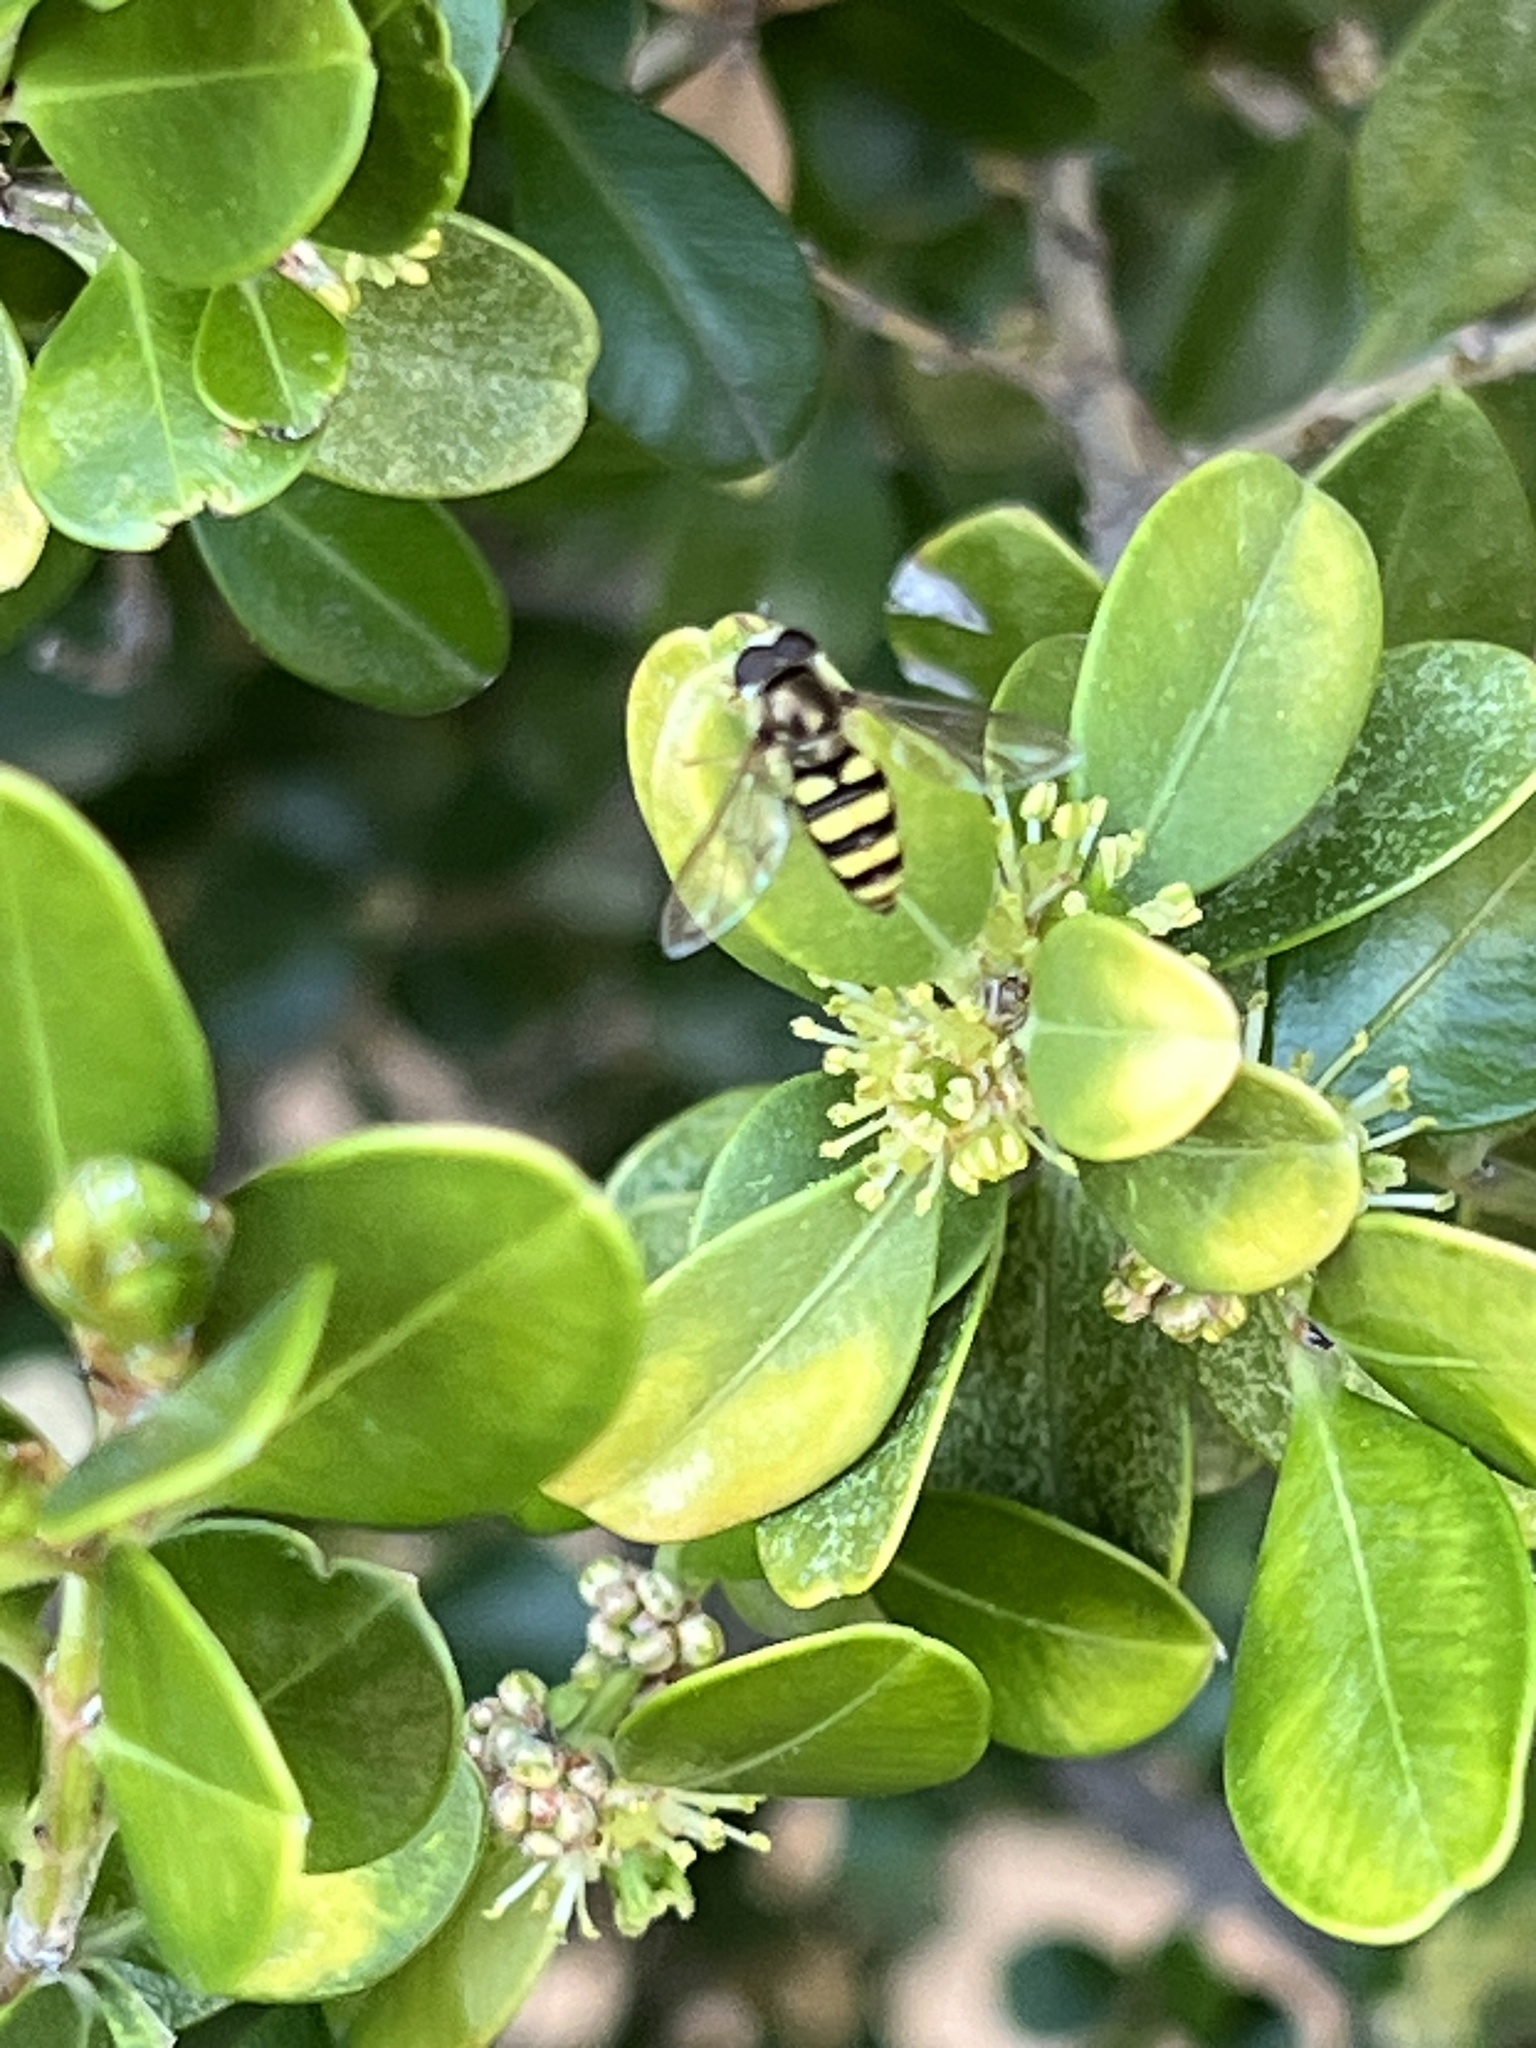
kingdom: Animalia
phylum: Arthropoda
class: Insecta
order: Diptera
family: Syrphidae
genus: Eupeodes
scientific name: Eupeodes
